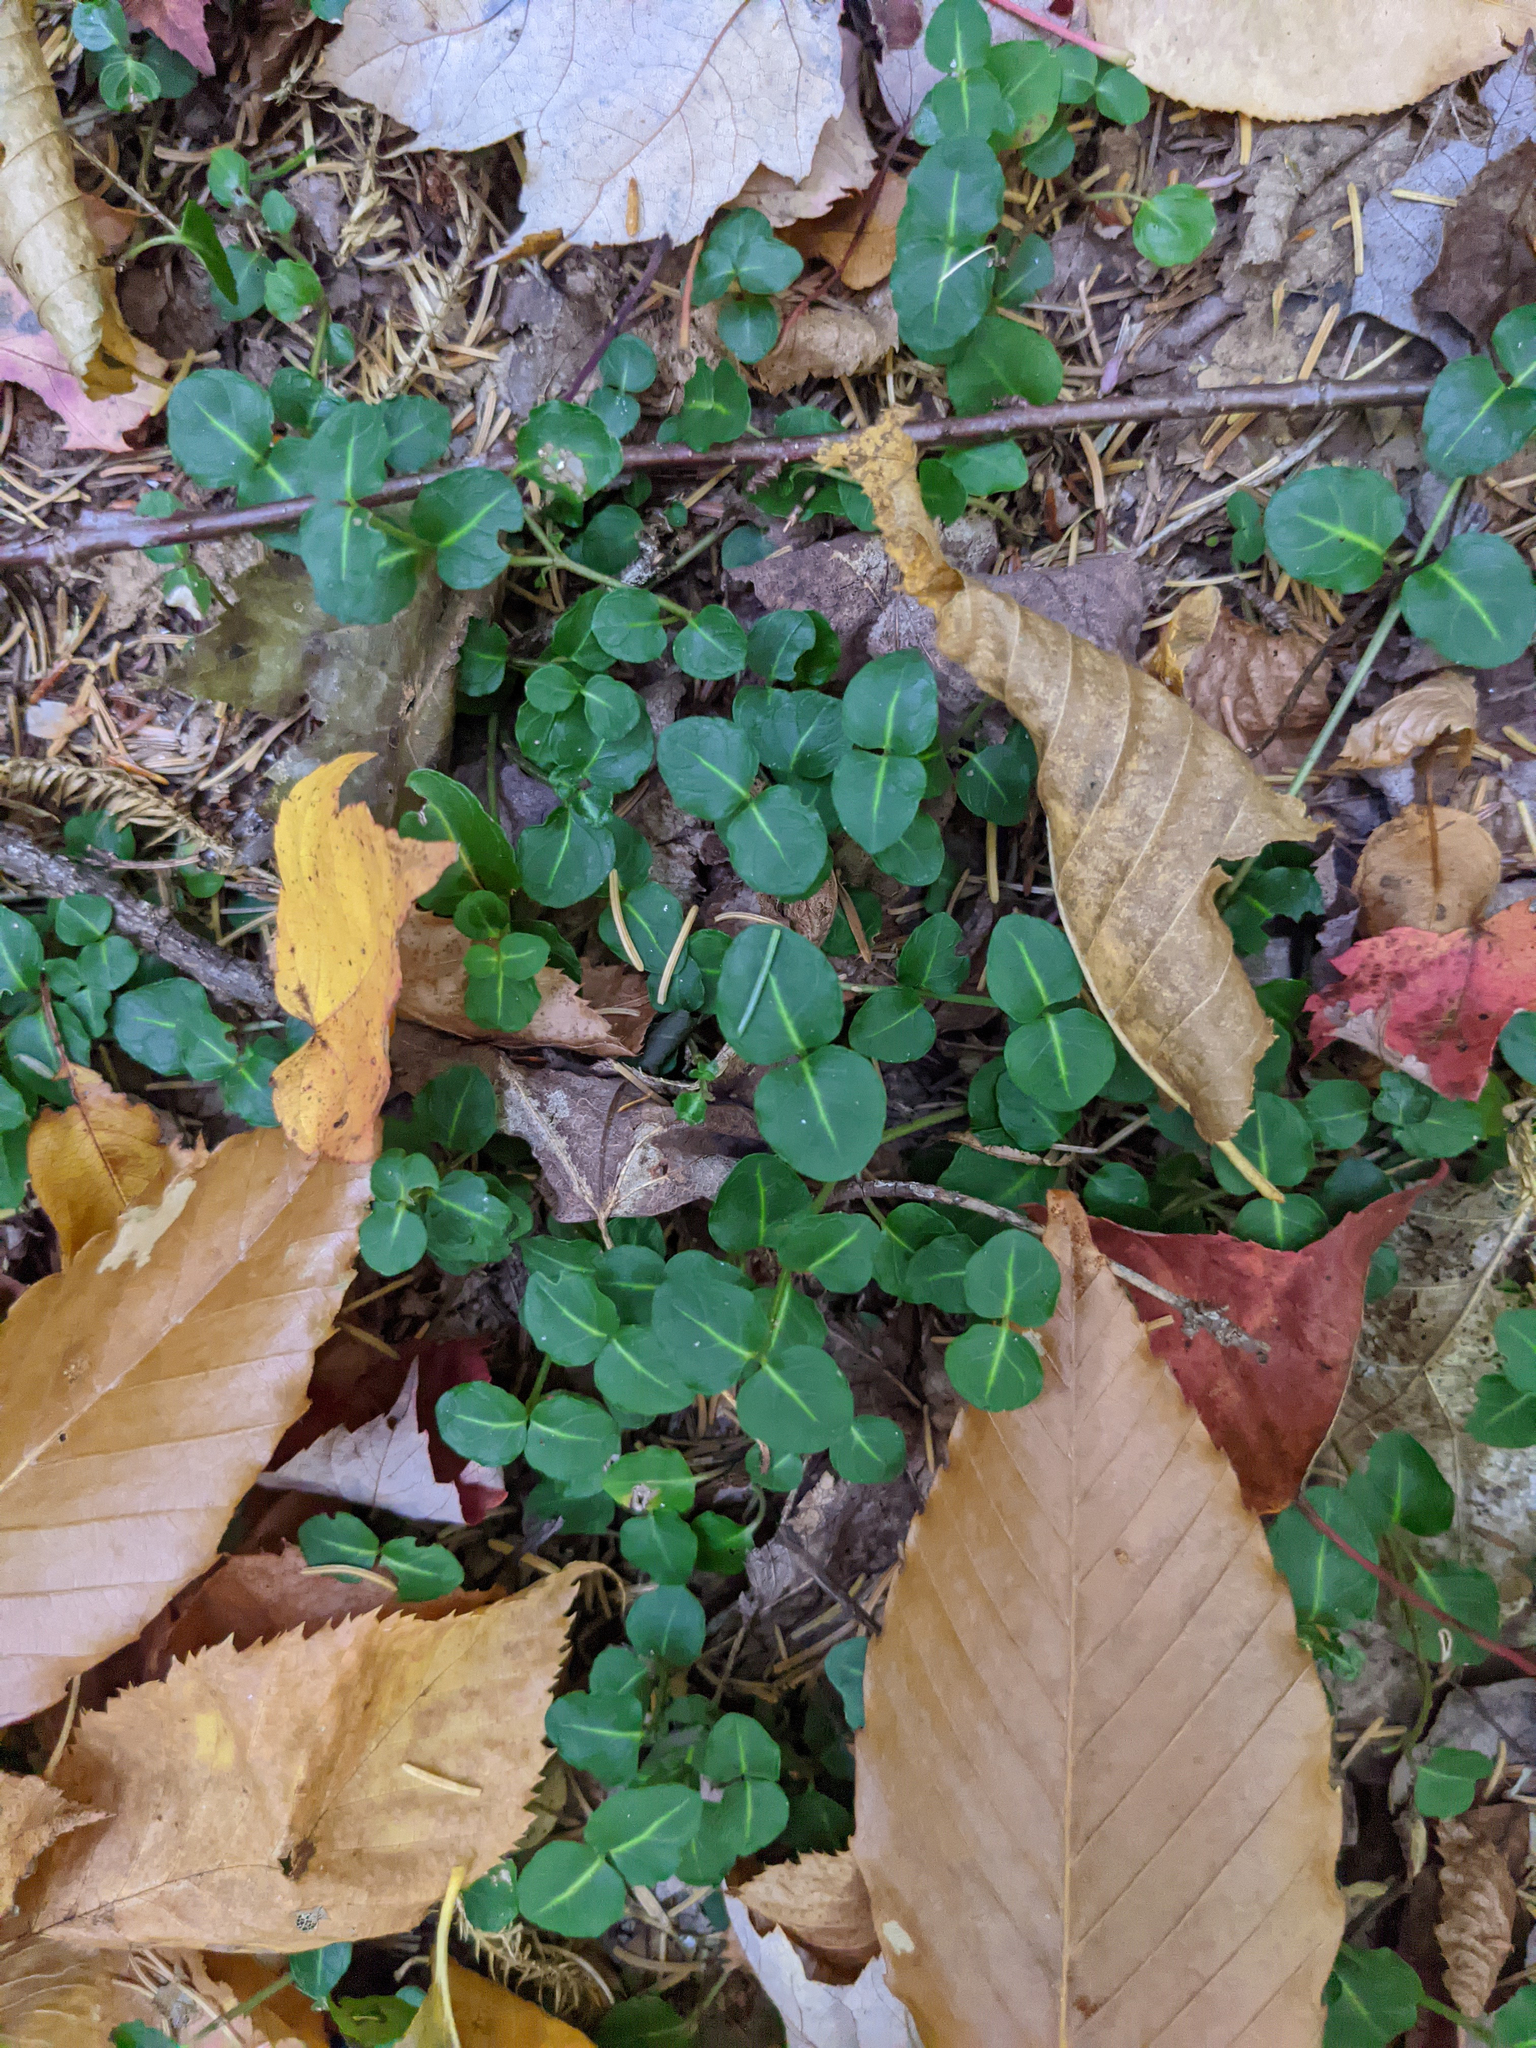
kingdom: Plantae
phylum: Tracheophyta
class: Magnoliopsida
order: Gentianales
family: Rubiaceae
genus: Mitchella
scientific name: Mitchella repens
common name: Partridge-berry
